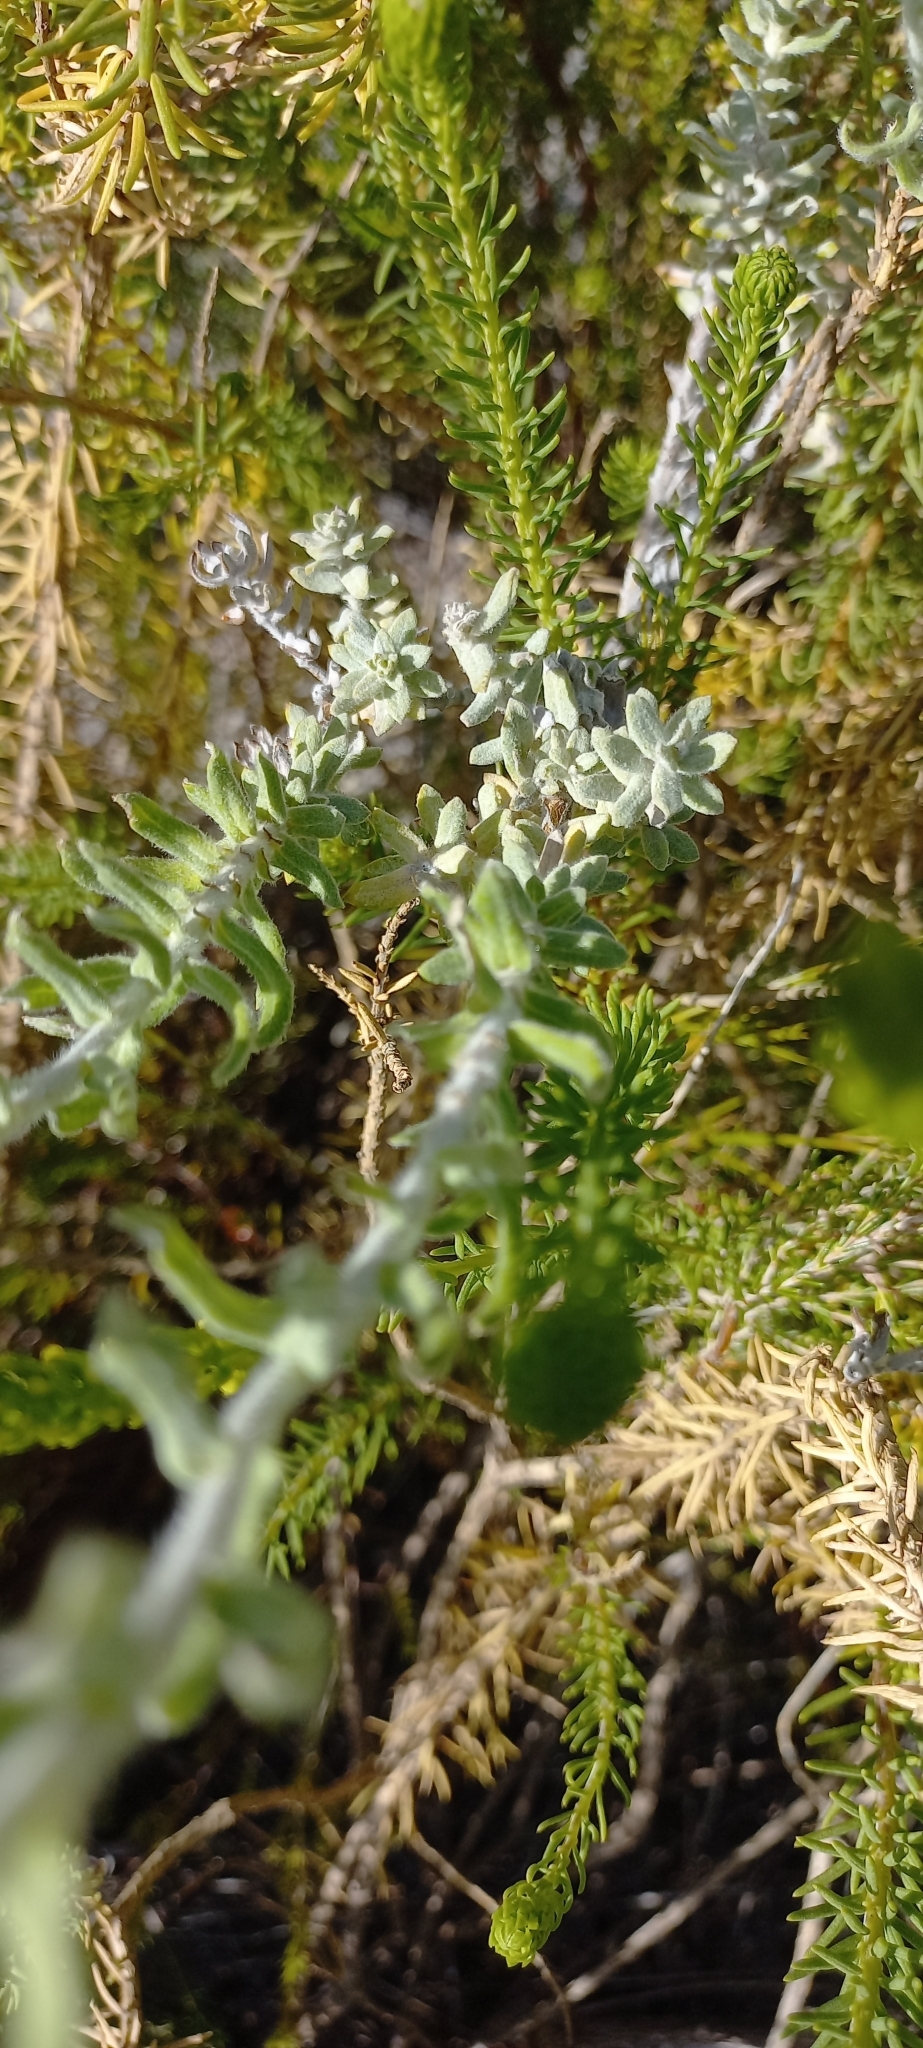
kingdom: Plantae
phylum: Tracheophyta
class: Magnoliopsida
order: Asterales
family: Asteraceae
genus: Helichrysum
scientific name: Helichrysum dasyanthum
